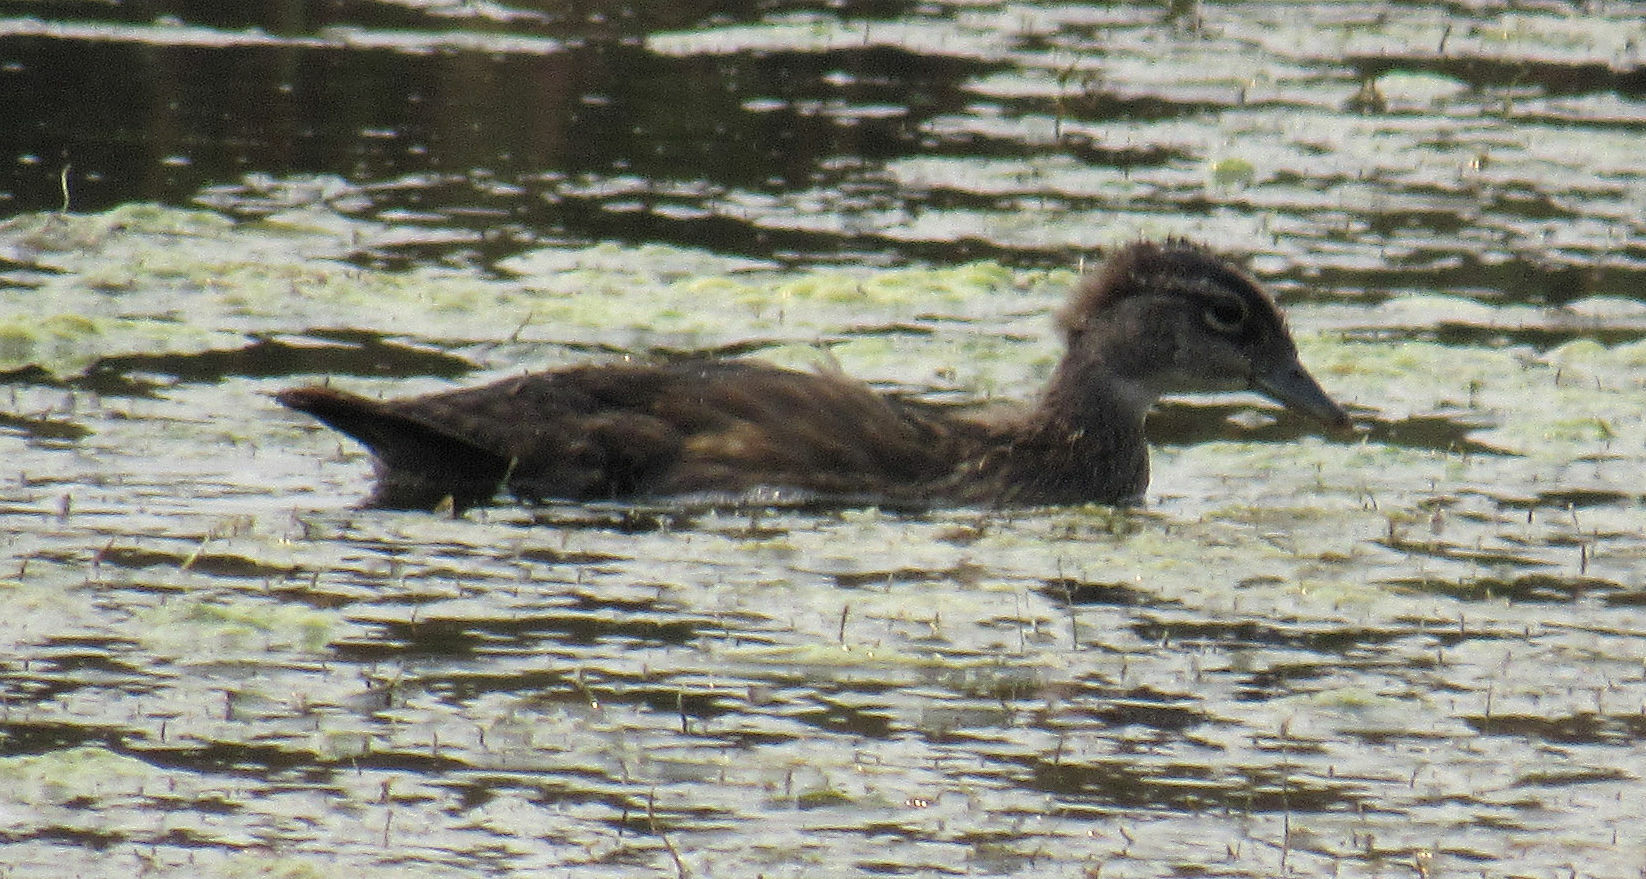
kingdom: Animalia
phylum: Chordata
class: Aves
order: Anseriformes
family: Anatidae
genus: Aix
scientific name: Aix sponsa
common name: Wood duck
